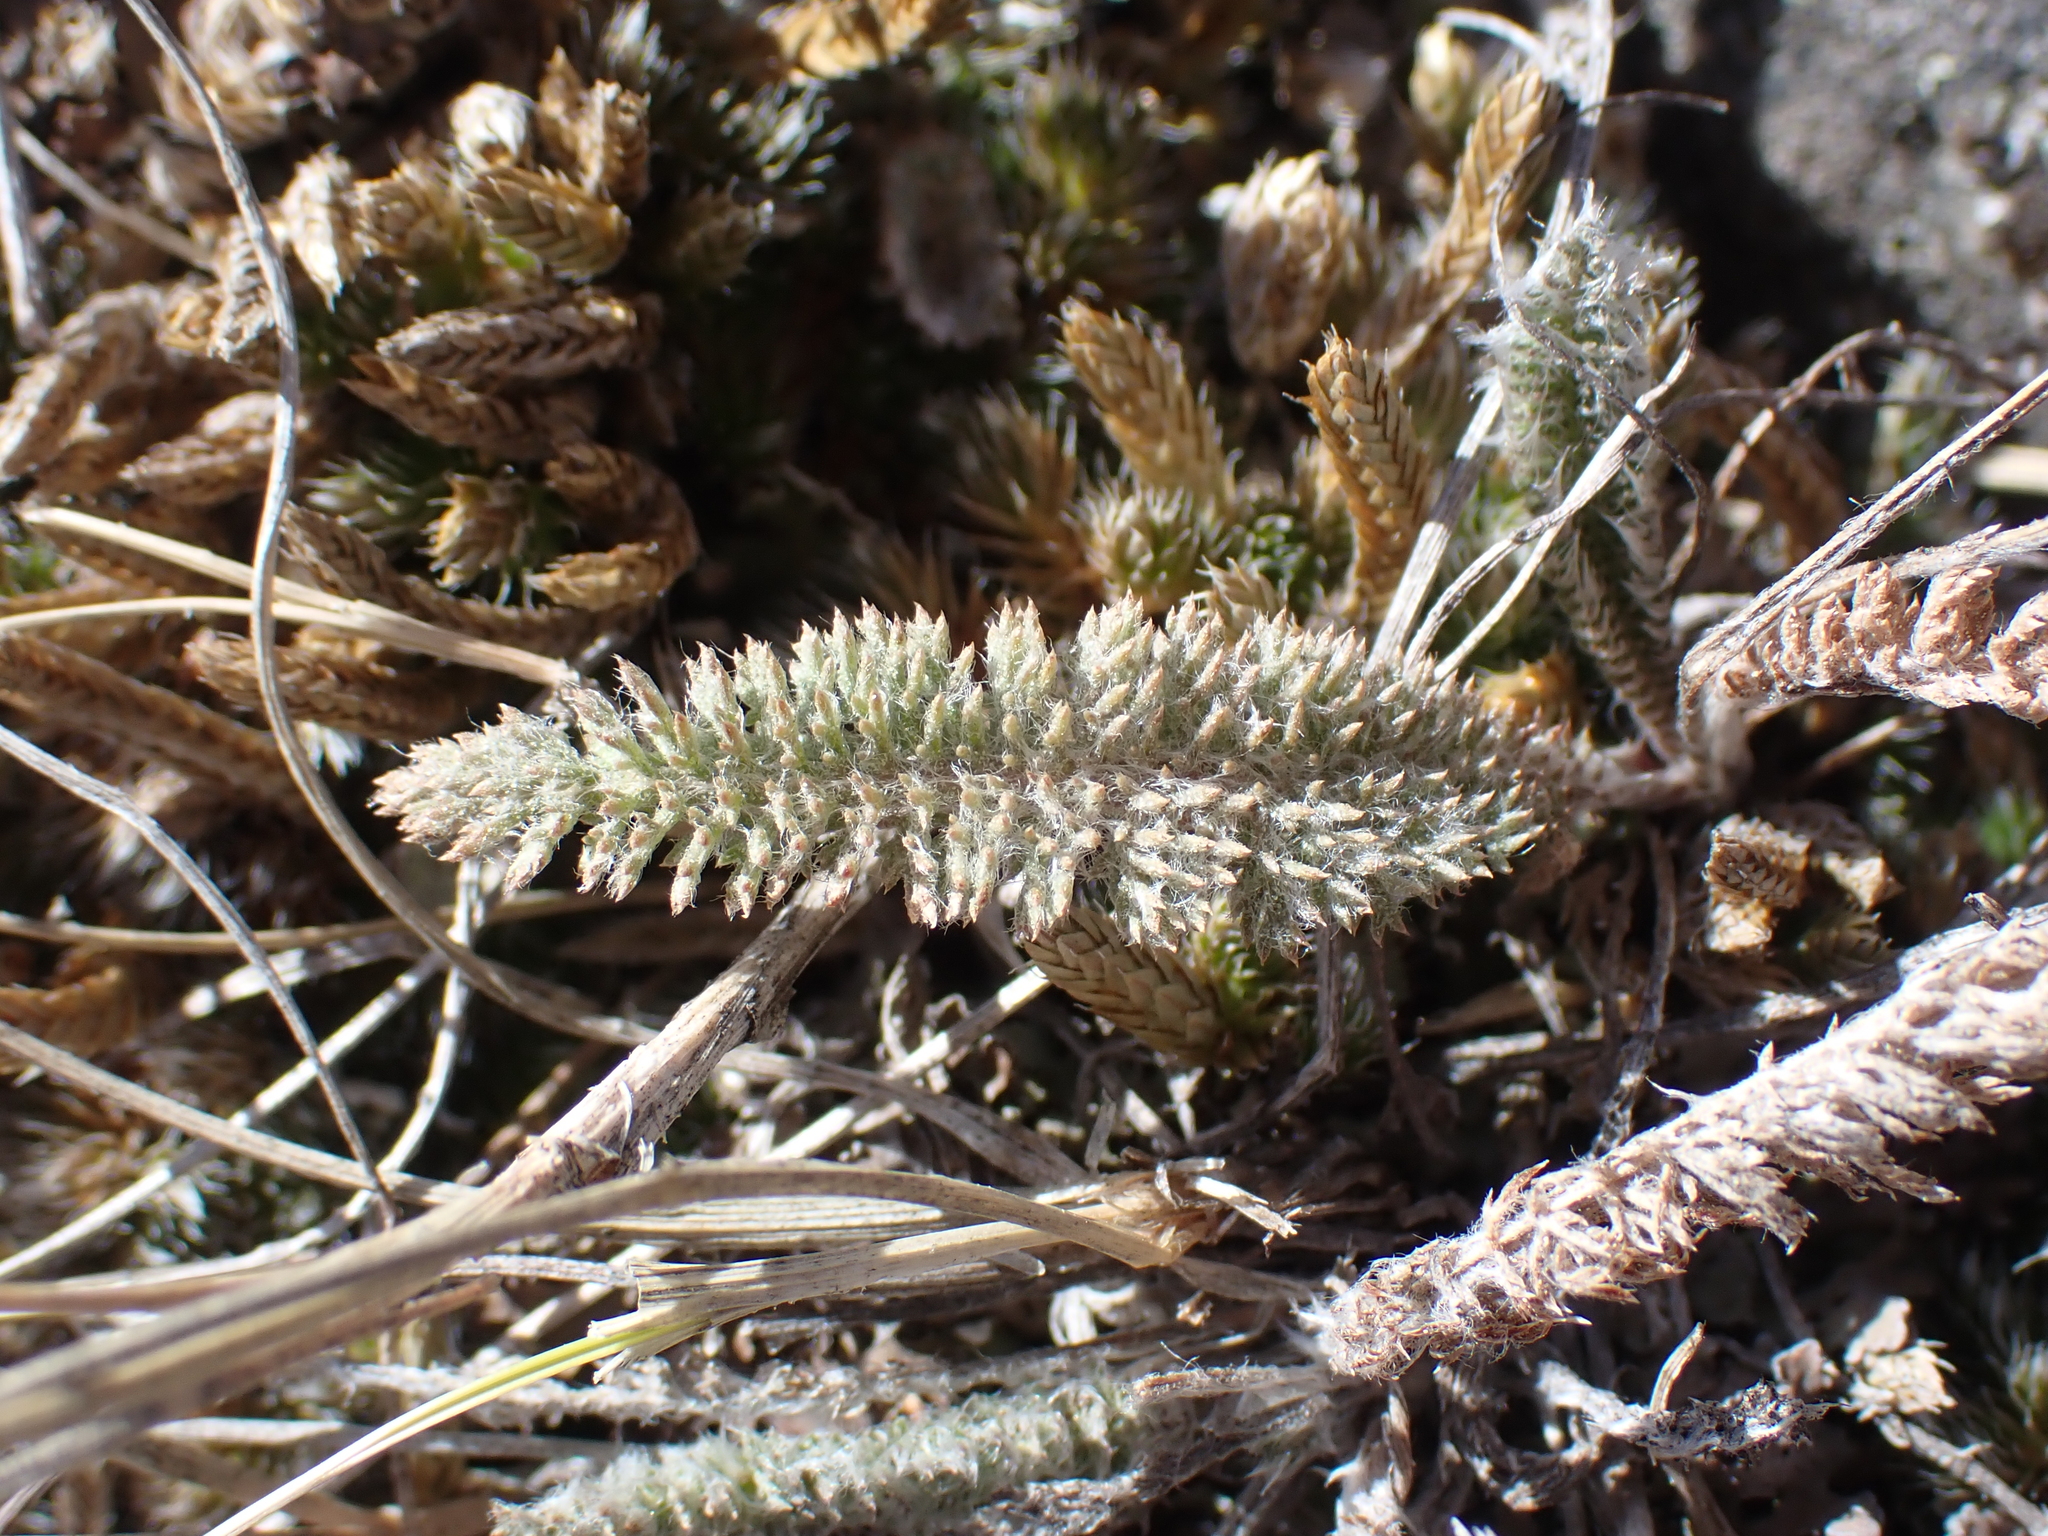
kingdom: Plantae
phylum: Tracheophyta
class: Magnoliopsida
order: Asterales
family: Asteraceae
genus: Achillea
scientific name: Achillea millefolium
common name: Yarrow
